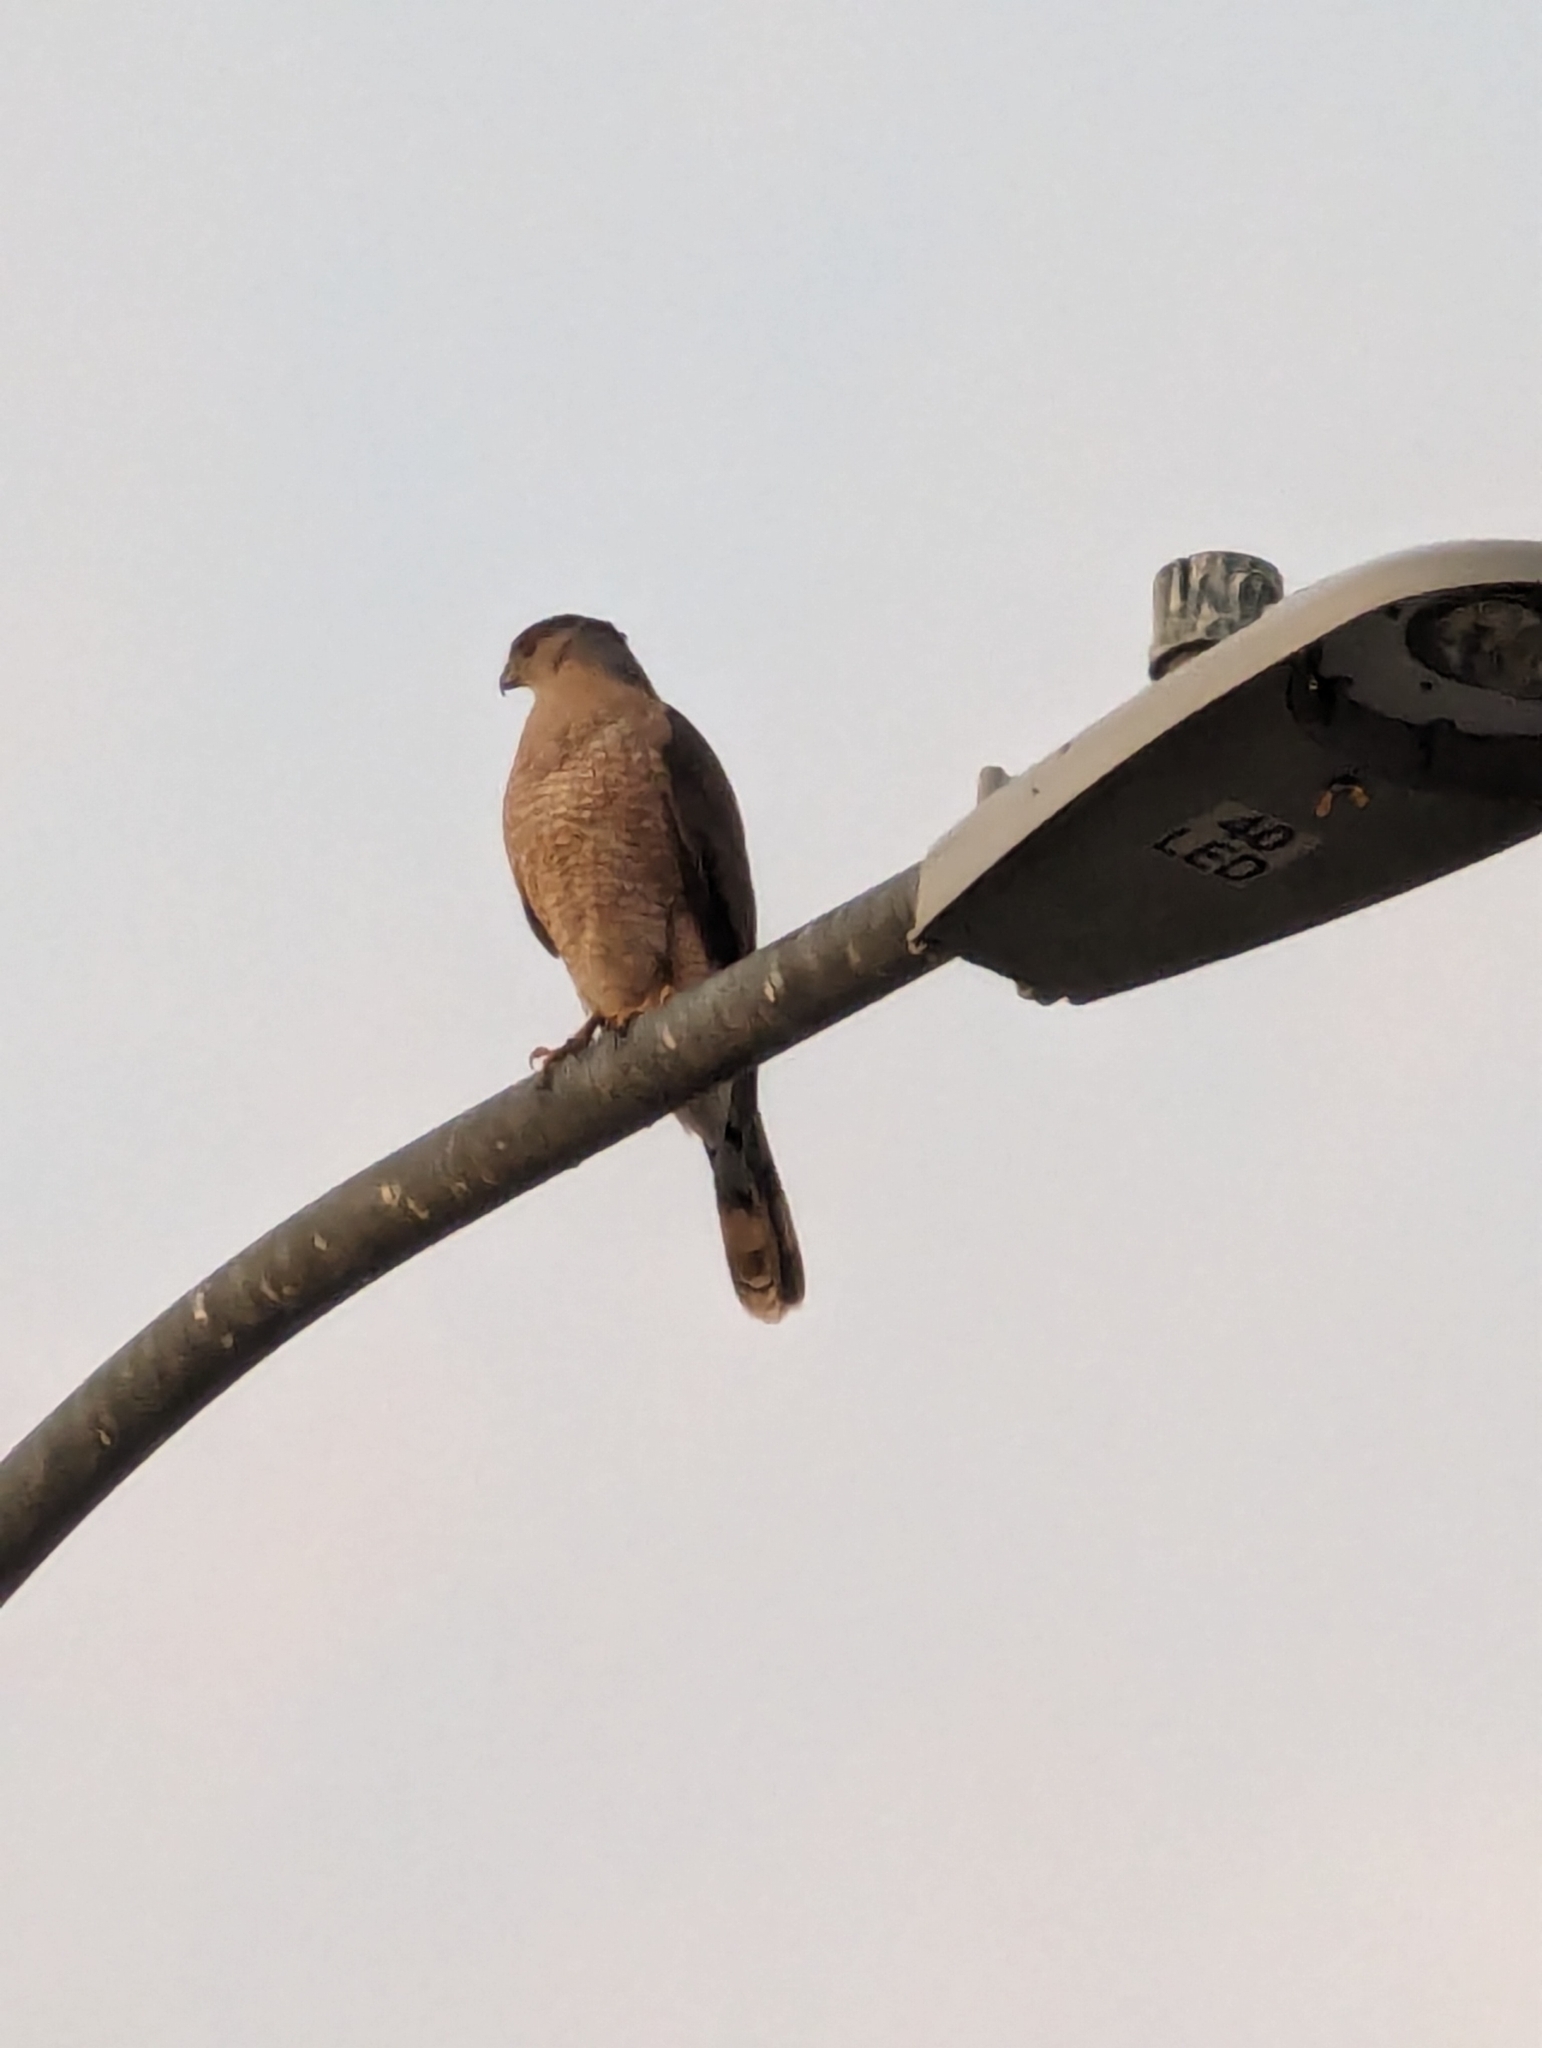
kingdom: Animalia
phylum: Chordata
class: Aves
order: Accipitriformes
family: Accipitridae
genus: Accipiter
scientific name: Accipiter cooperii
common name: Cooper's hawk
